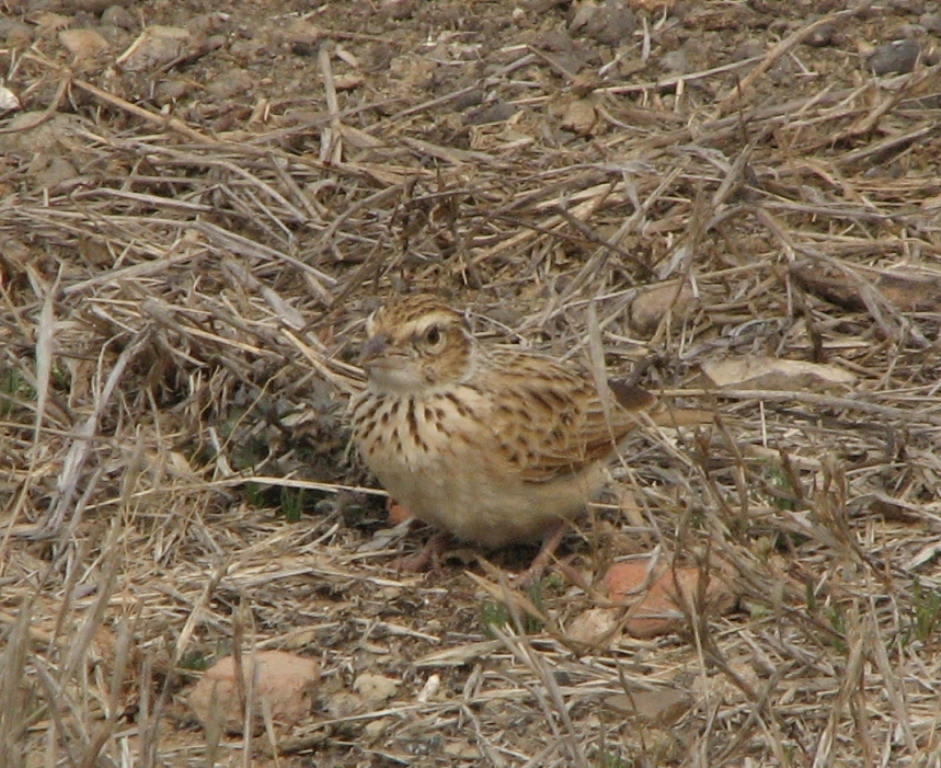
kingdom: Animalia
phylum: Chordata
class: Aves
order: Passeriformes
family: Alaudidae
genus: Mirafra
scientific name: Mirafra erythroptera
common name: Indian bush lark
